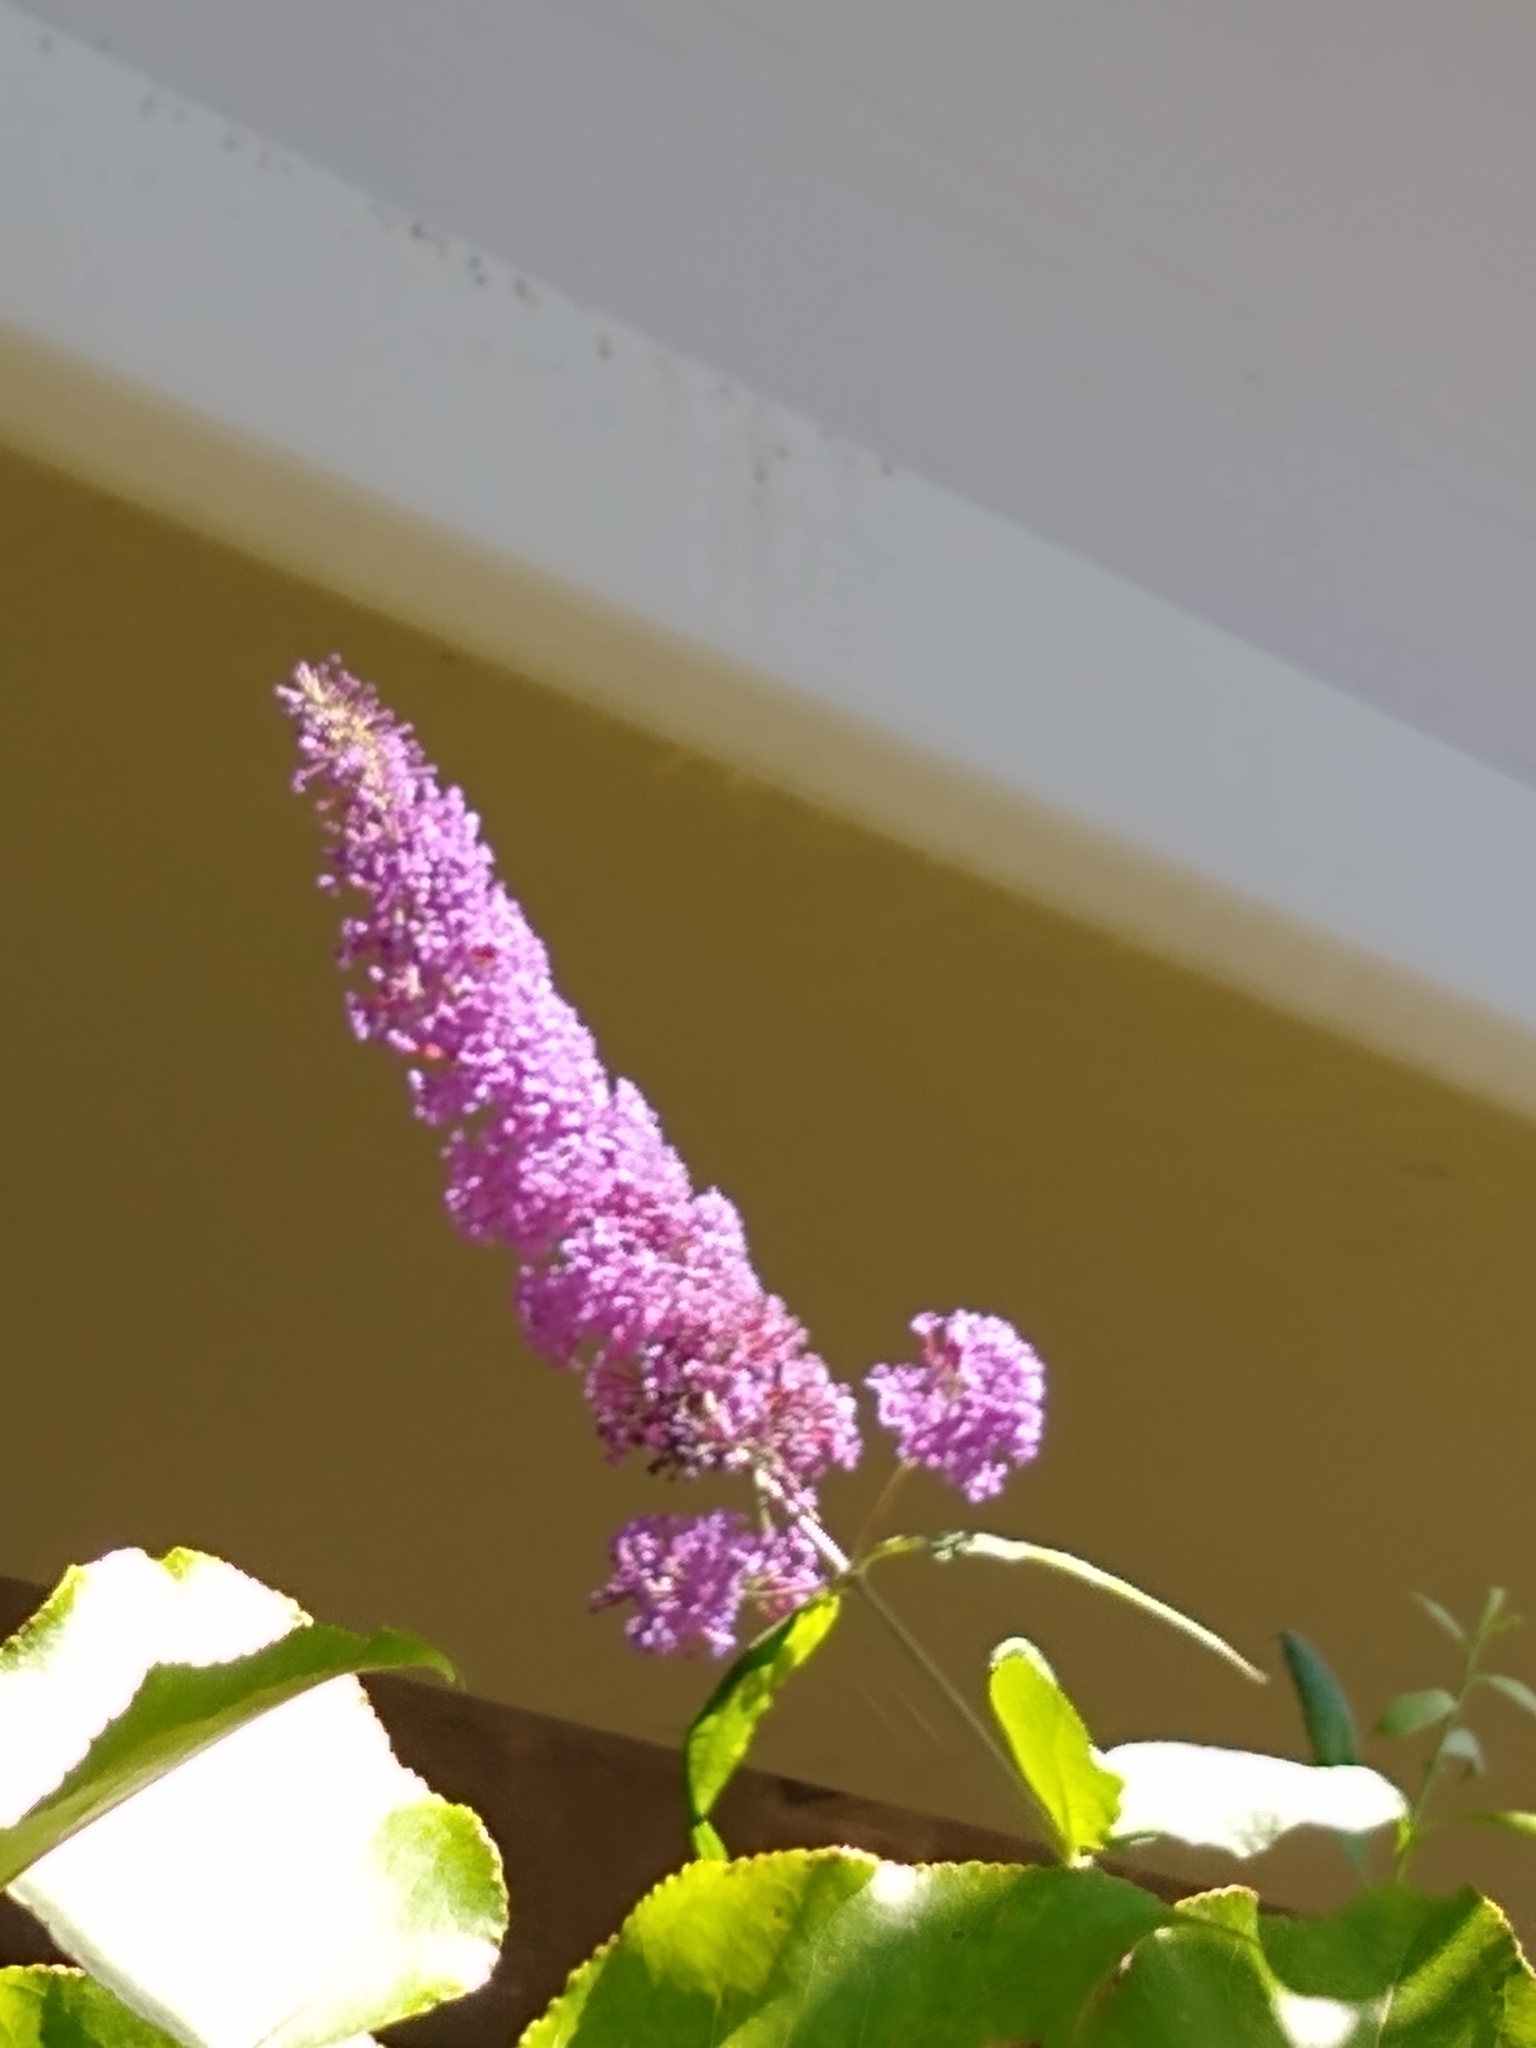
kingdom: Plantae
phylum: Tracheophyta
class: Magnoliopsida
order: Lamiales
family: Scrophulariaceae
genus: Buddleja
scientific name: Buddleja davidii
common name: Butterfly-bush
